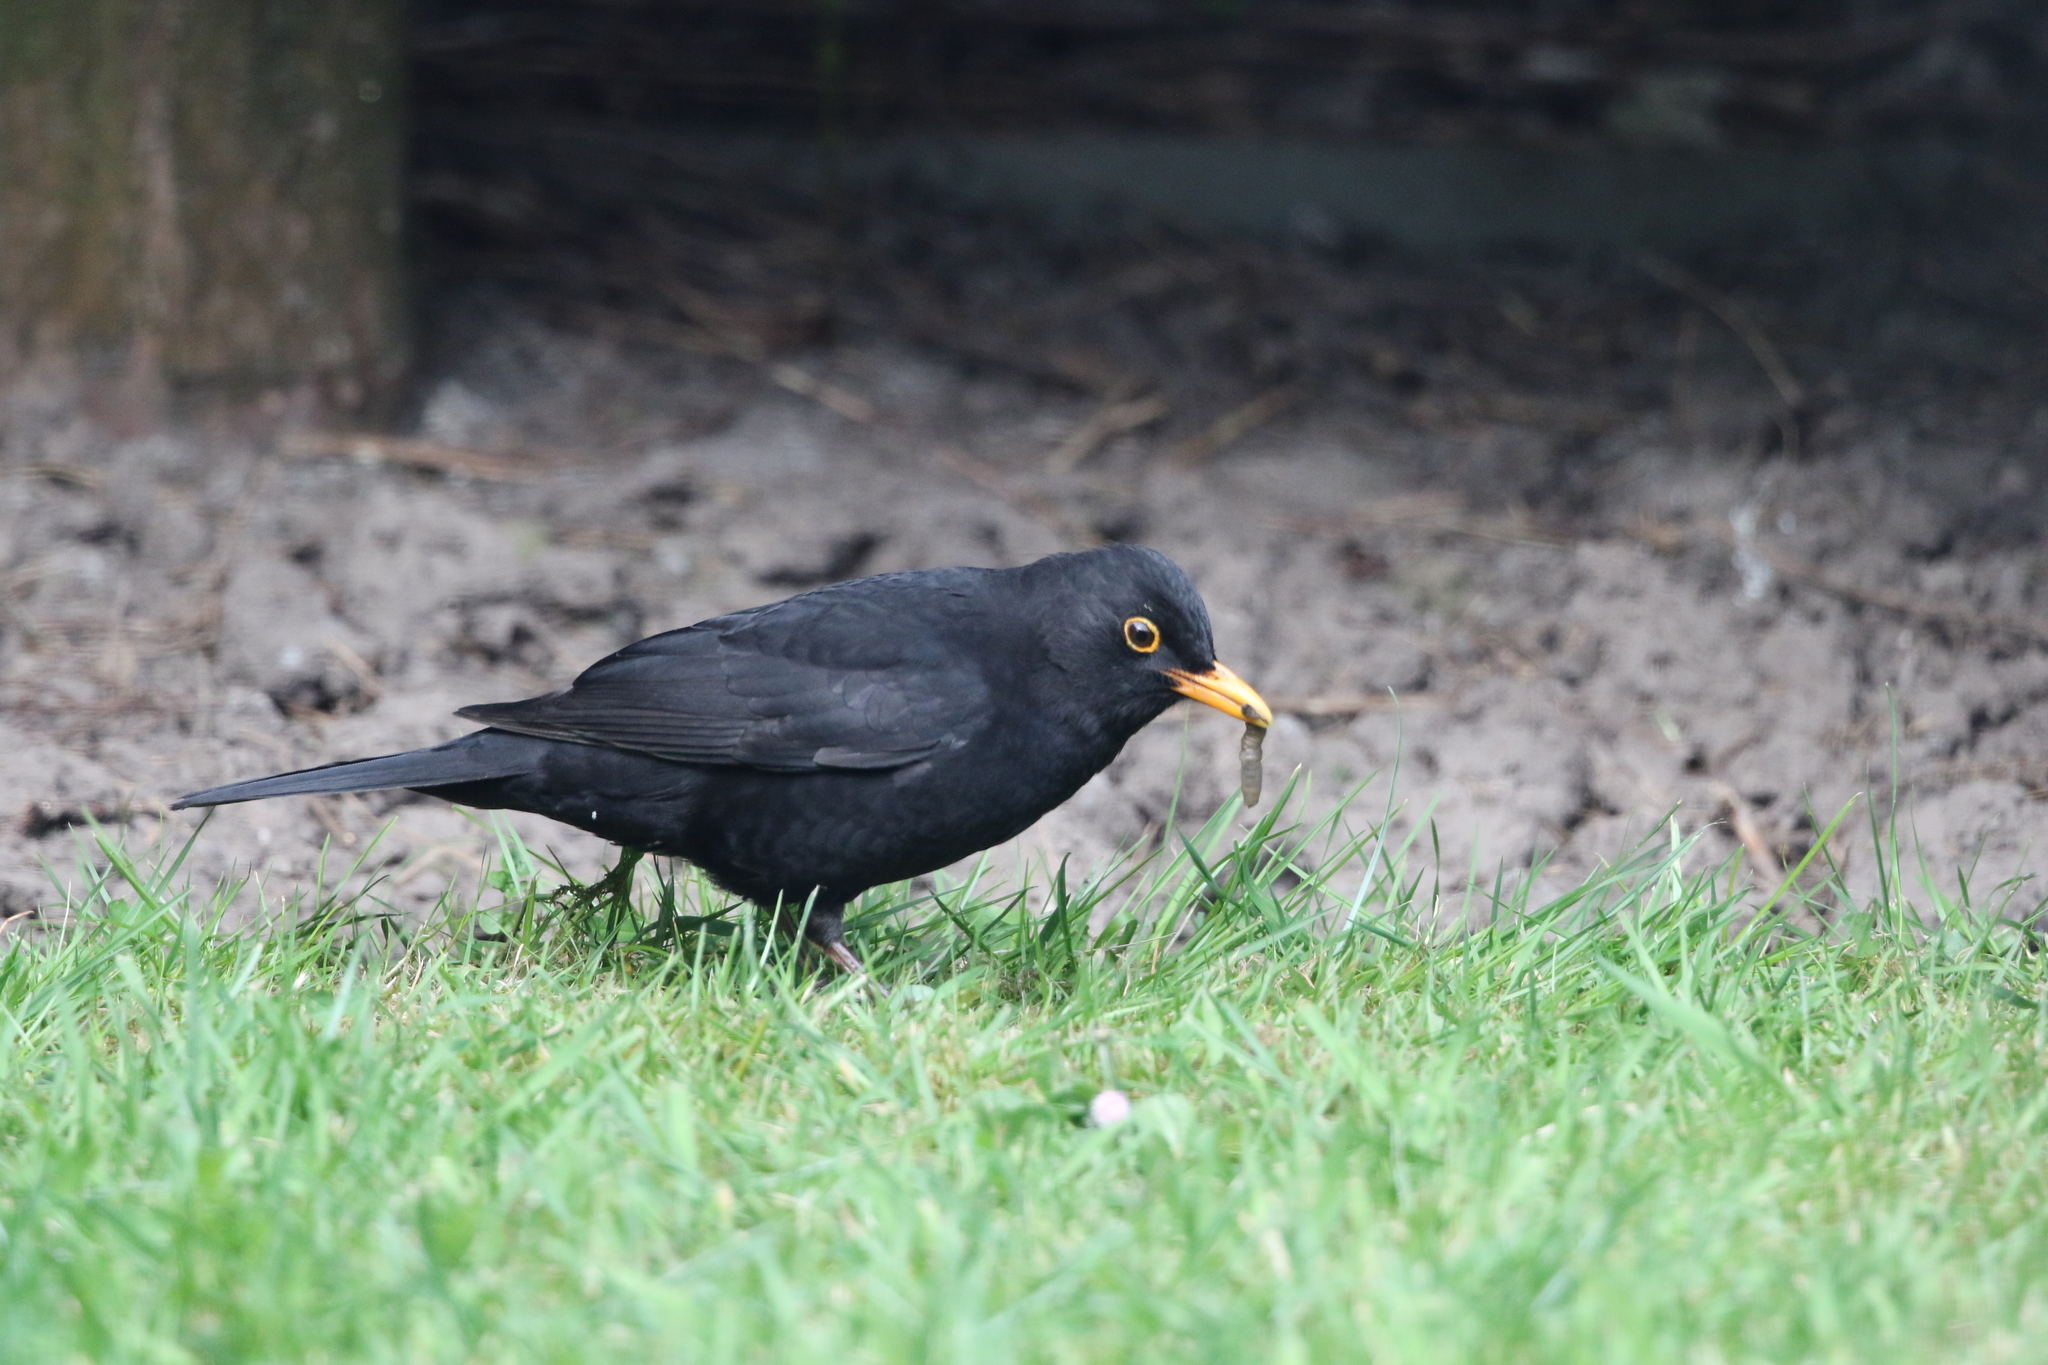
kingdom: Animalia
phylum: Chordata
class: Aves
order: Passeriformes
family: Turdidae
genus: Turdus
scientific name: Turdus merula
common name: Common blackbird
